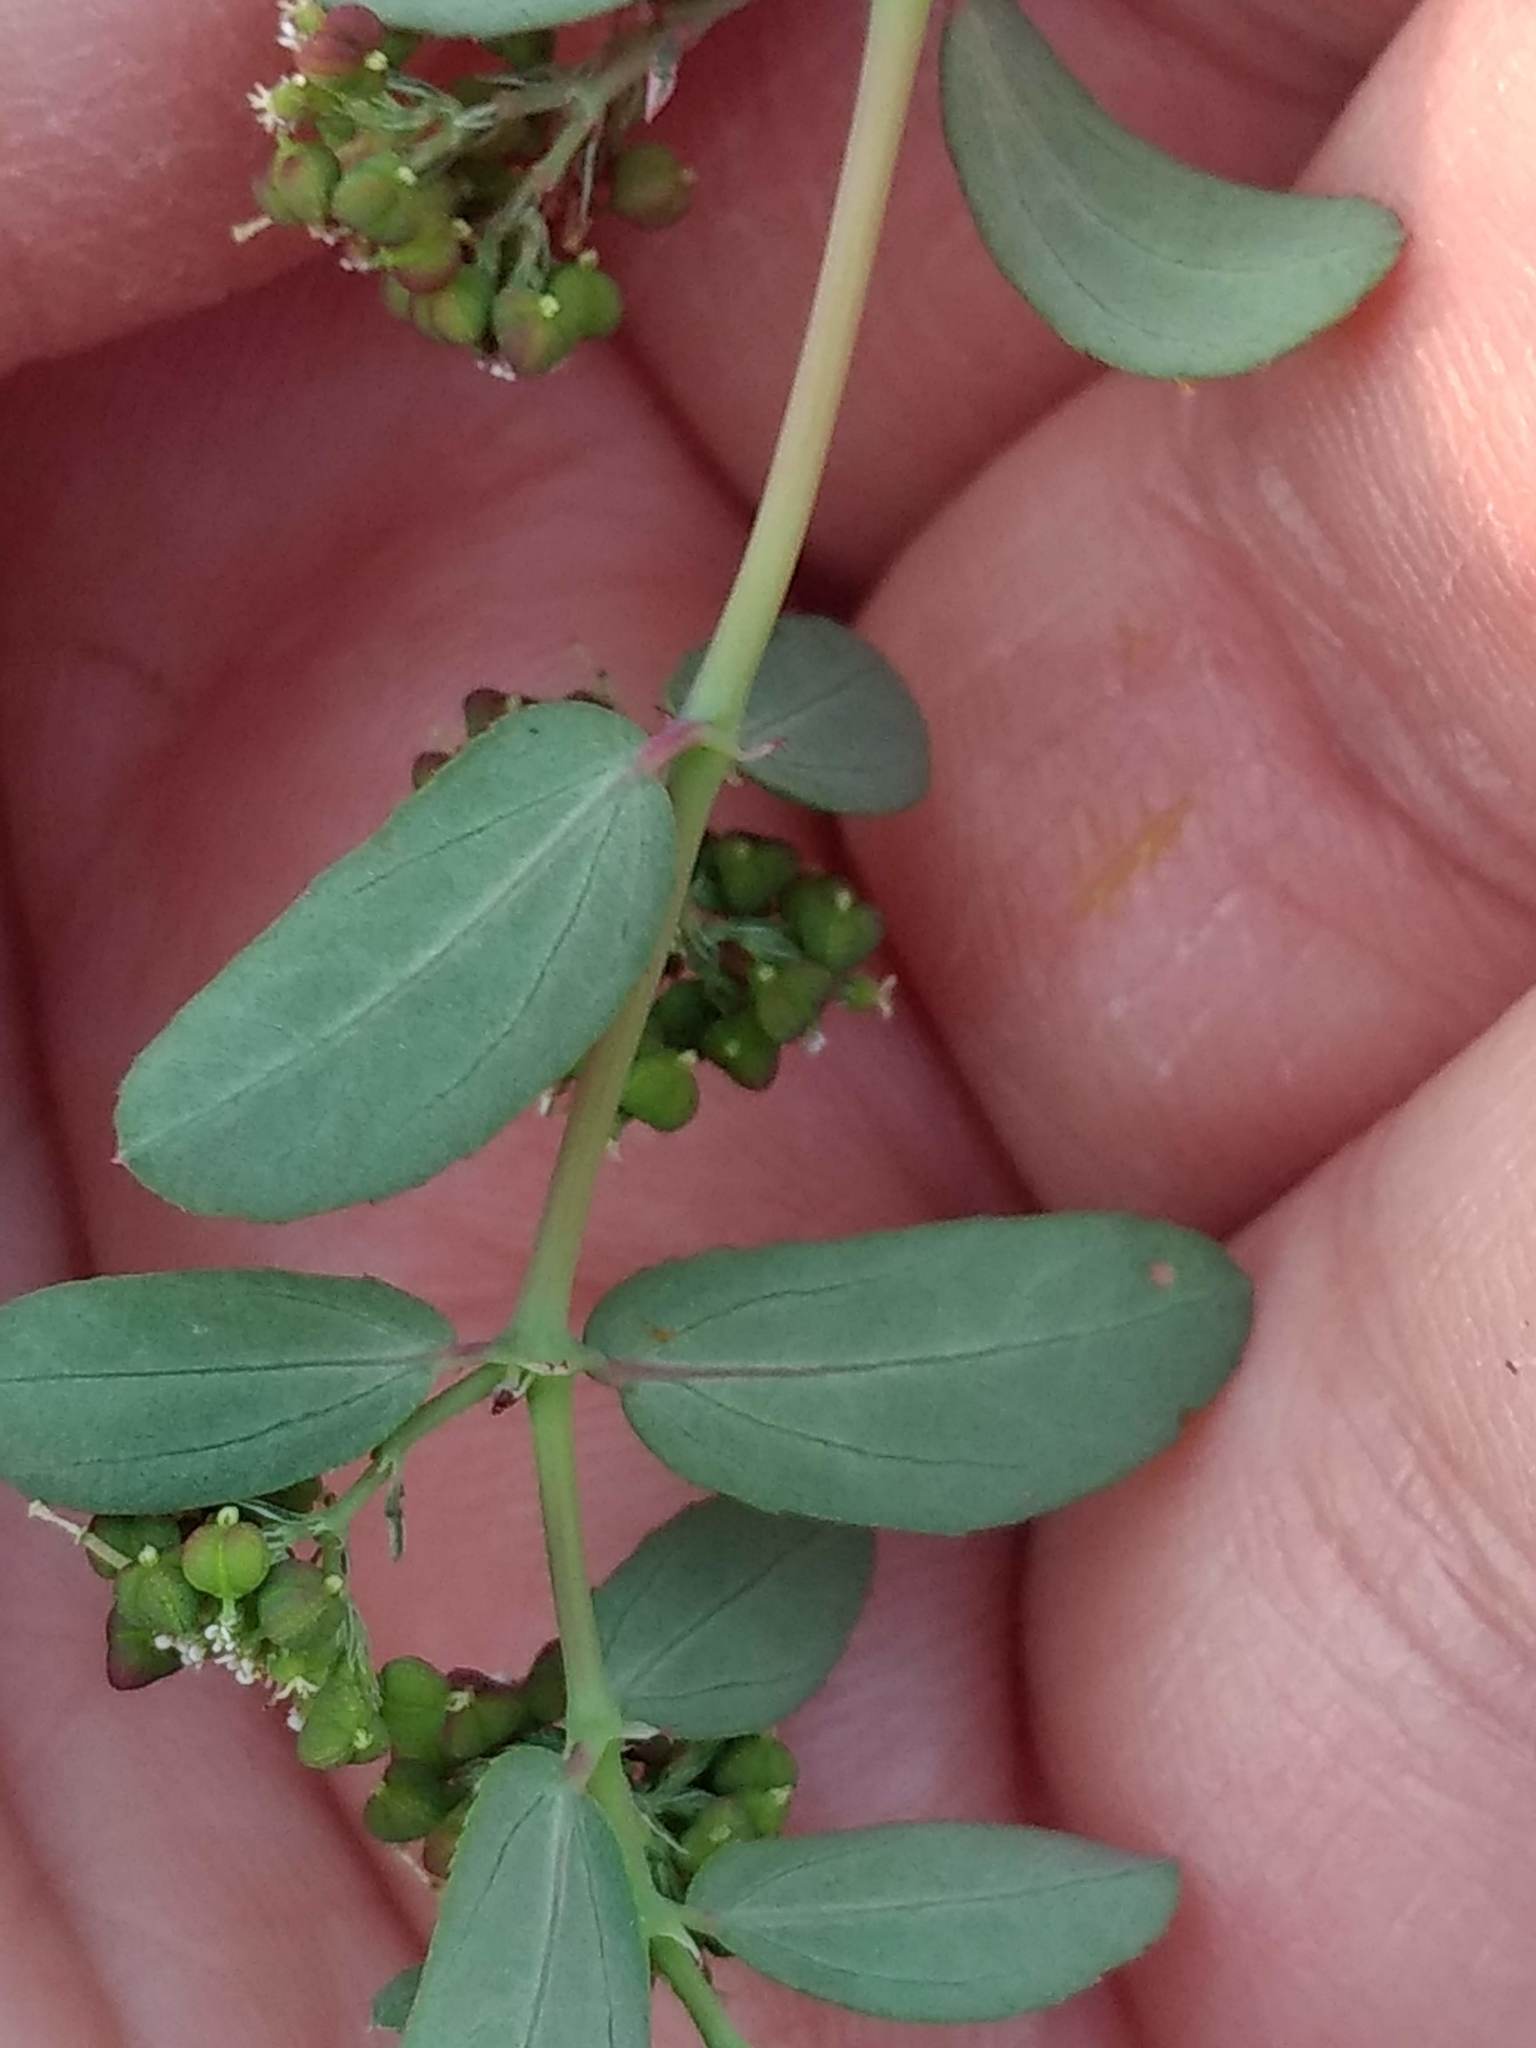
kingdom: Plantae
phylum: Tracheophyta
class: Magnoliopsida
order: Malpighiales
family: Euphorbiaceae
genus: Euphorbia
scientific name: Euphorbia hypericifolia
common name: Graceful sandmat
